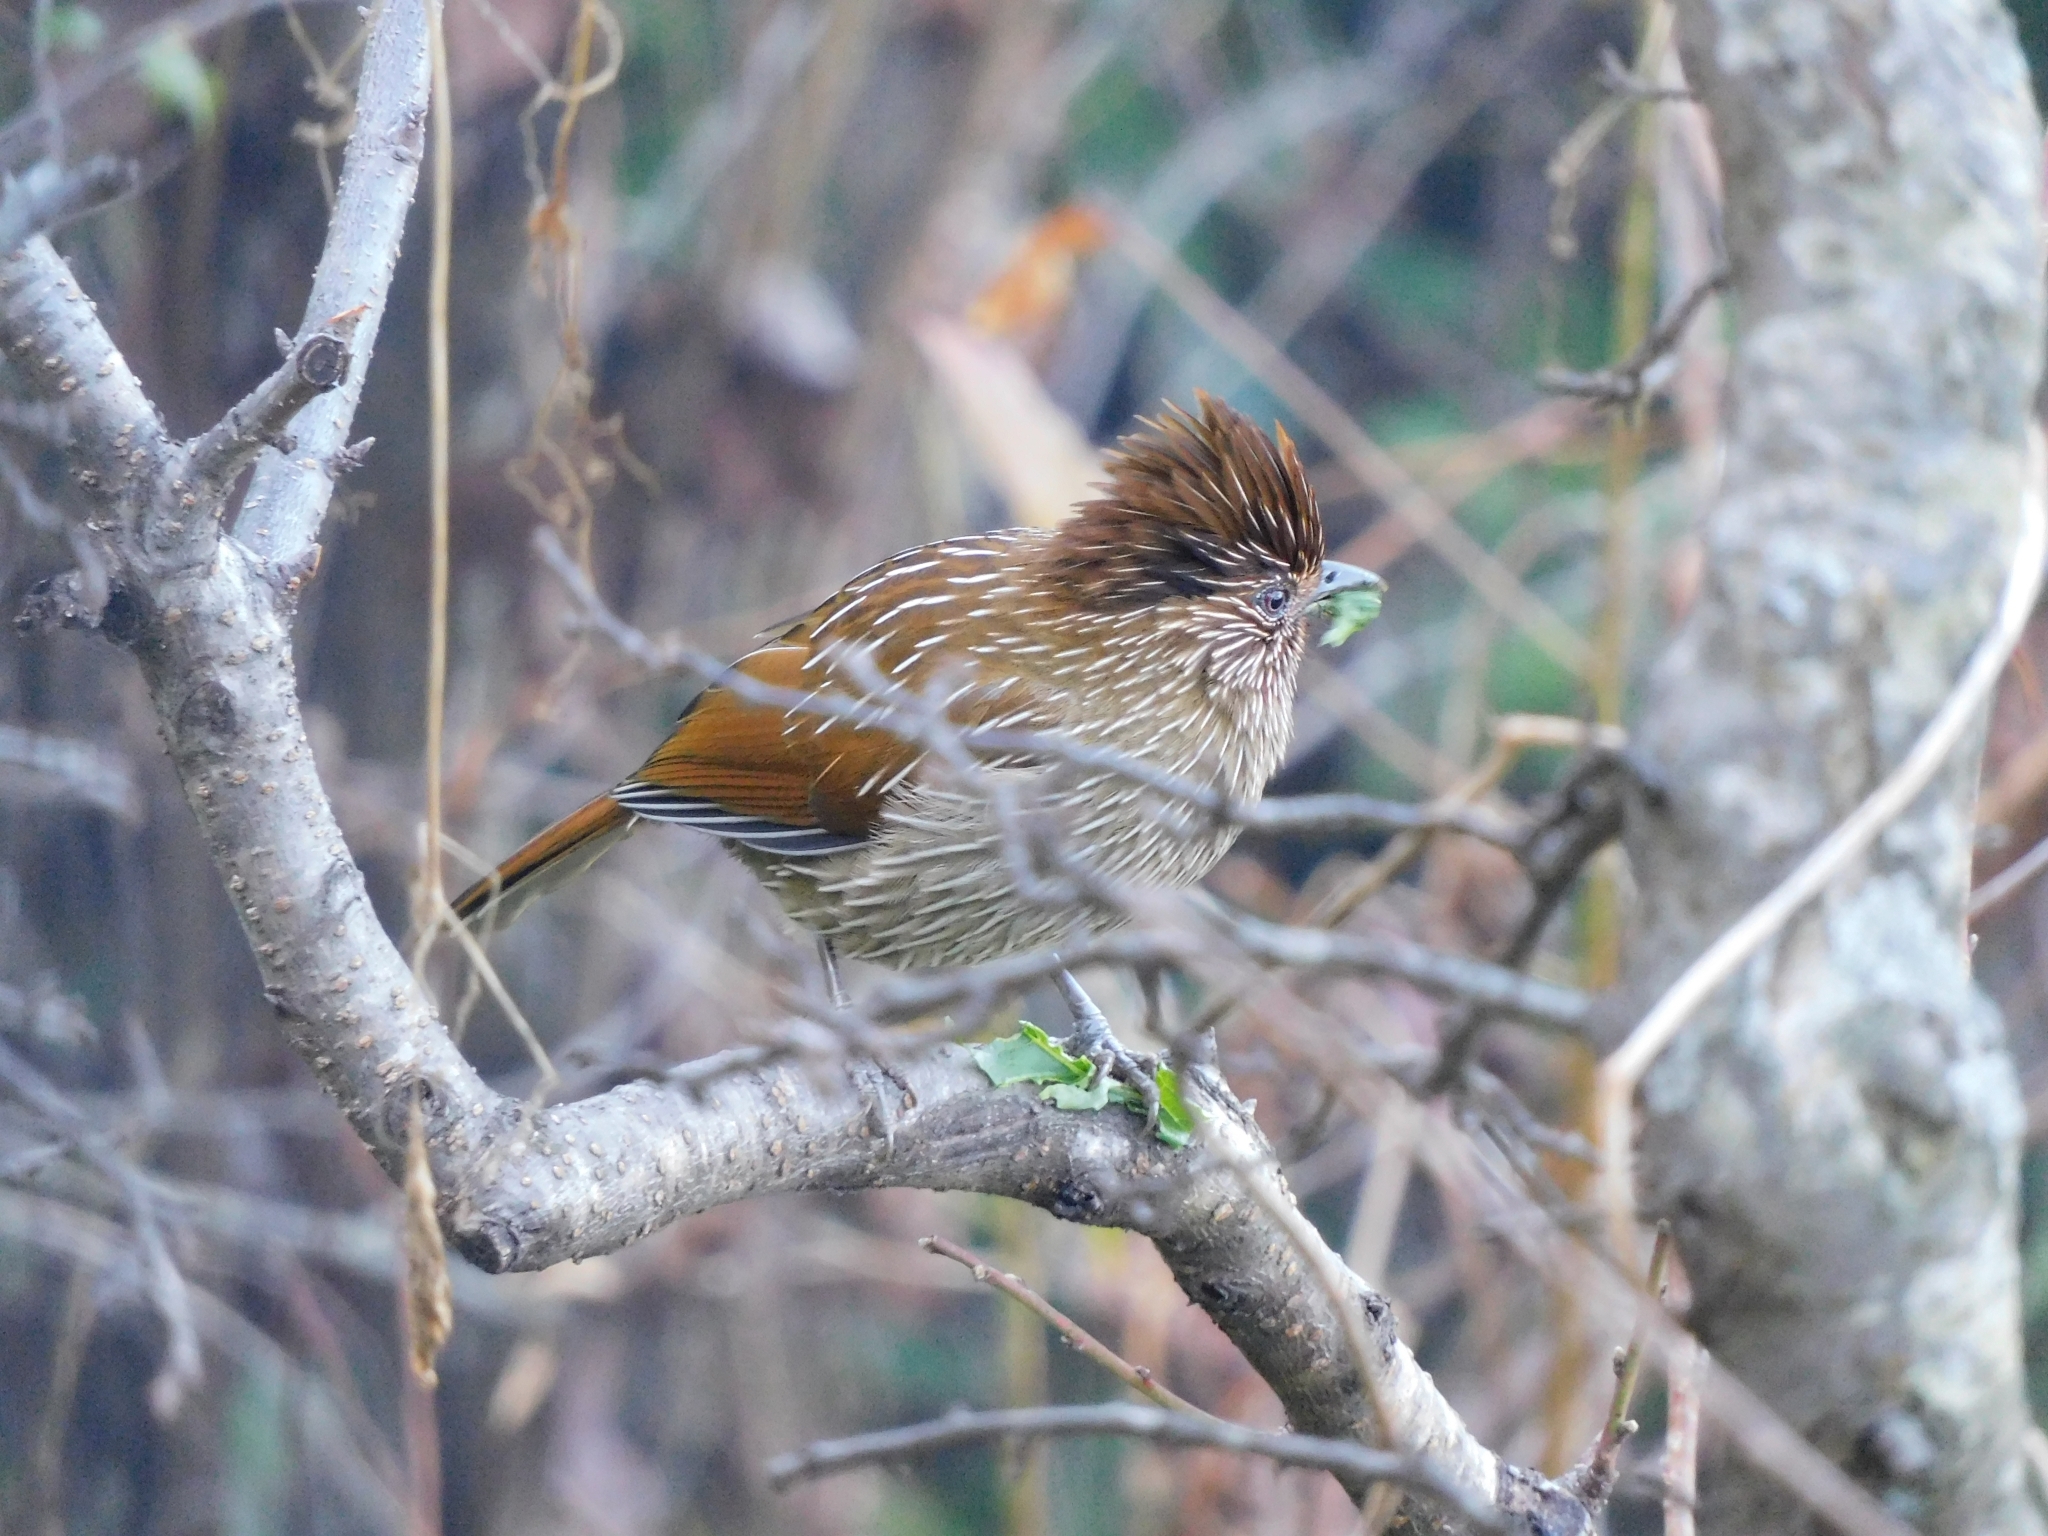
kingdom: Animalia
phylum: Chordata
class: Aves
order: Passeriformes
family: Leiothrichidae
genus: Garrulax
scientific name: Garrulax striatus
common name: Striated laughingthrush
